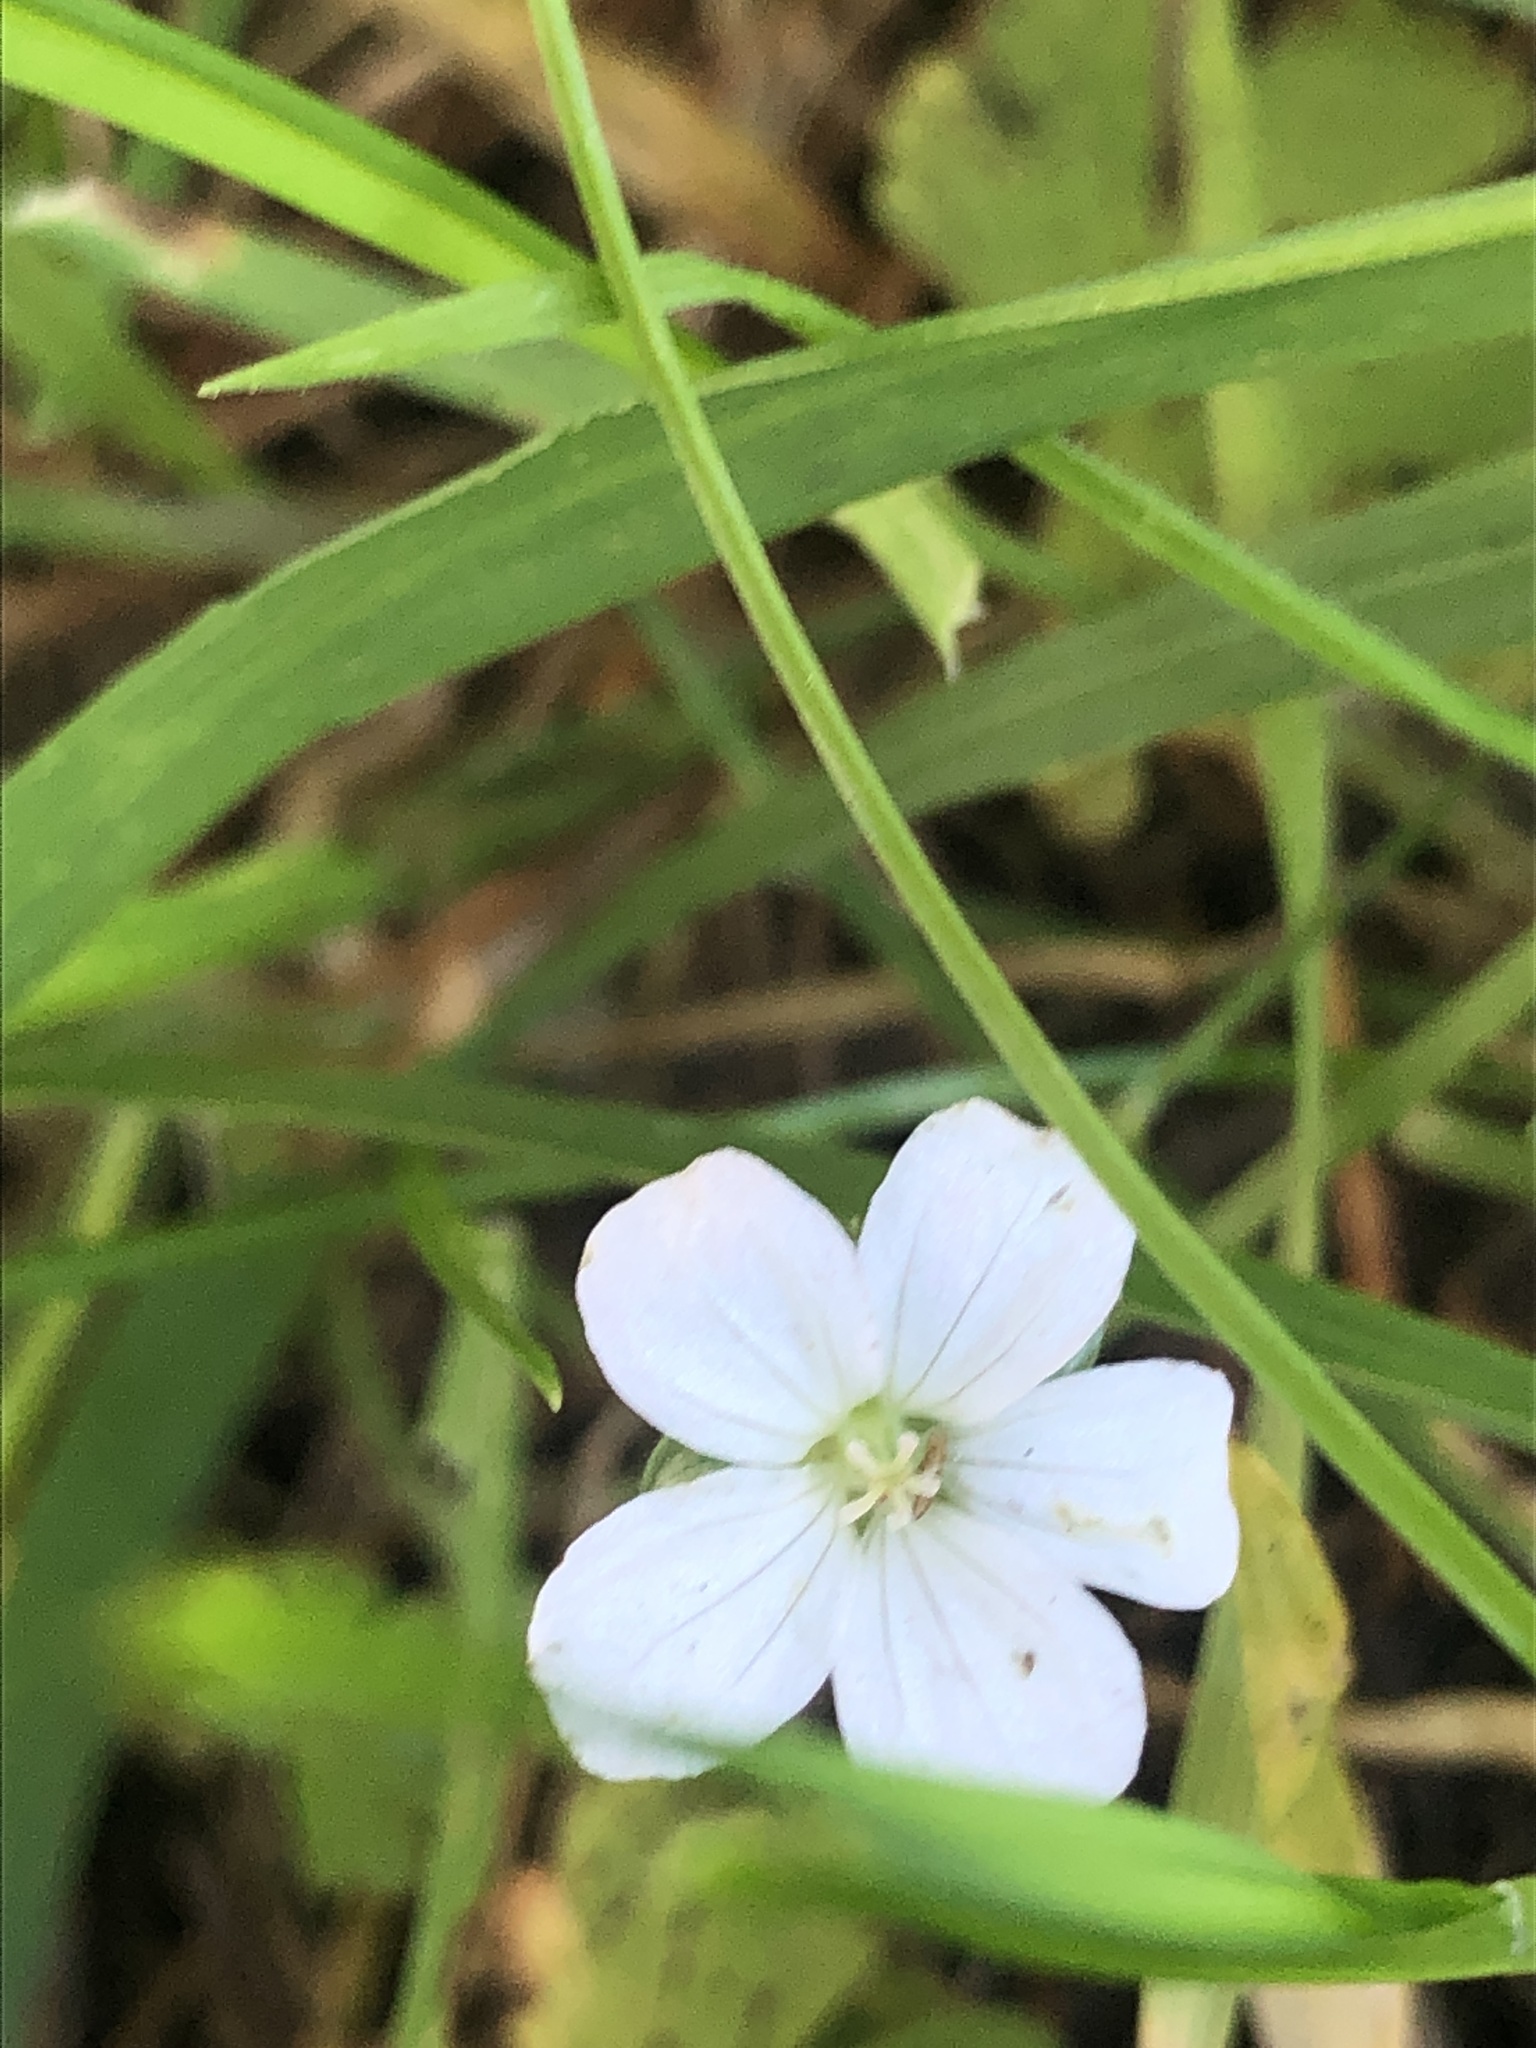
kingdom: Plantae
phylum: Tracheophyta
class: Magnoliopsida
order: Geraniales
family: Geraniaceae
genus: Geranium
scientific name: Geranium potentilloides
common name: Cinquefoil geranium
